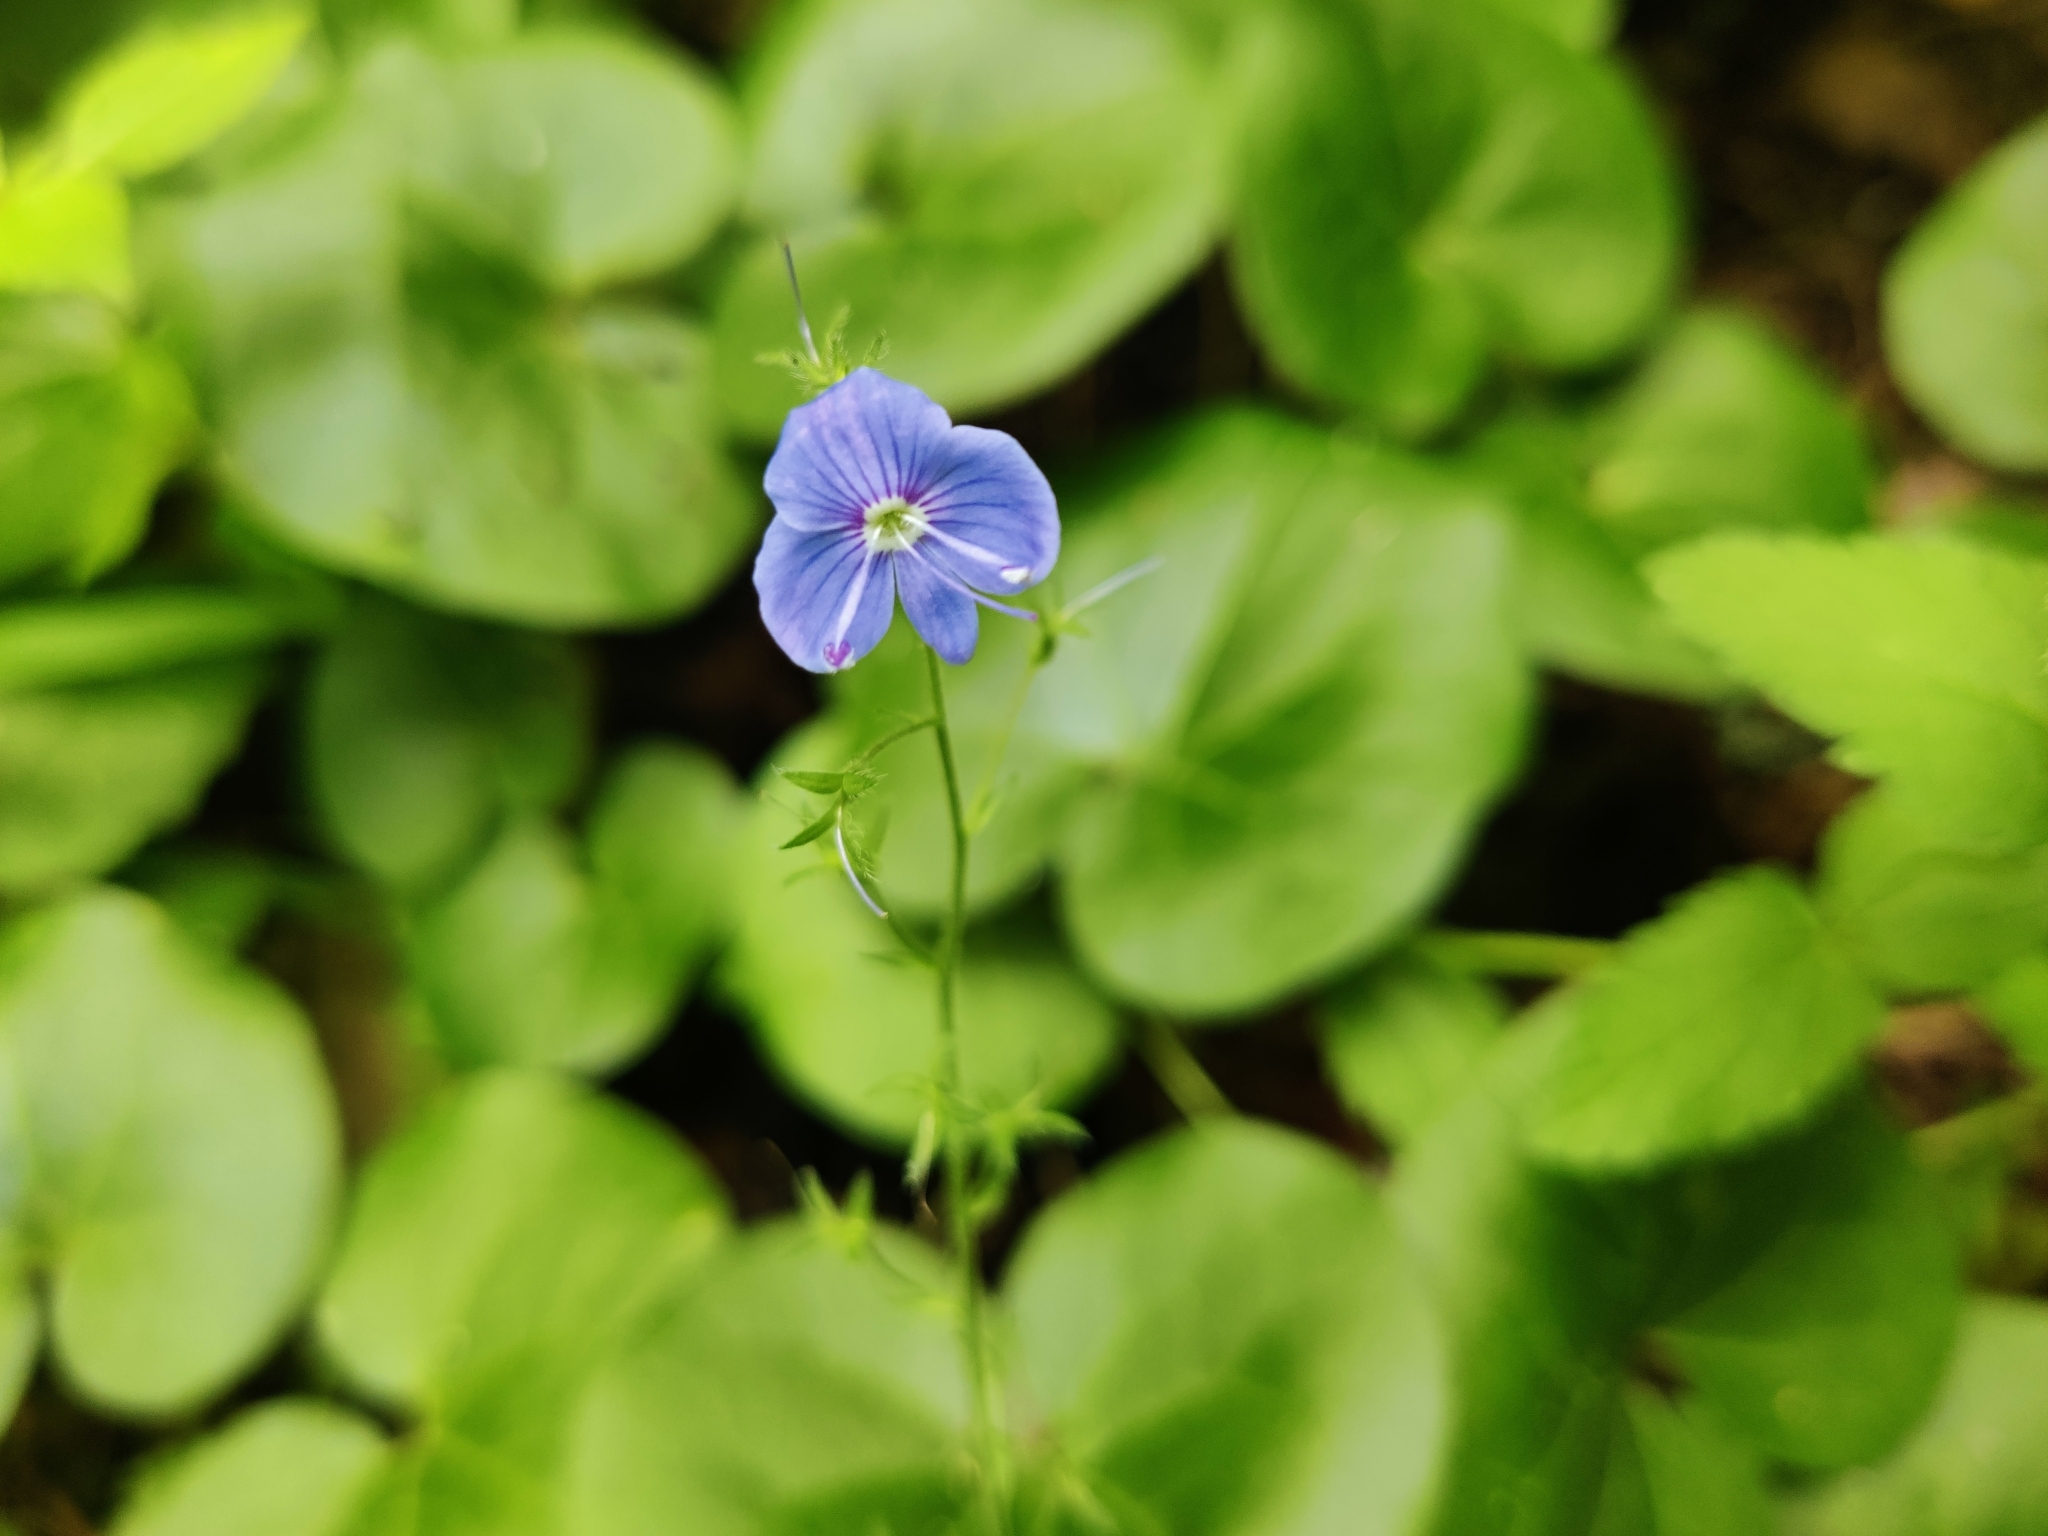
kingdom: Plantae
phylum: Tracheophyta
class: Magnoliopsida
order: Lamiales
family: Plantaginaceae
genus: Veronica
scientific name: Veronica chamaedrys
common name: Germander speedwell
